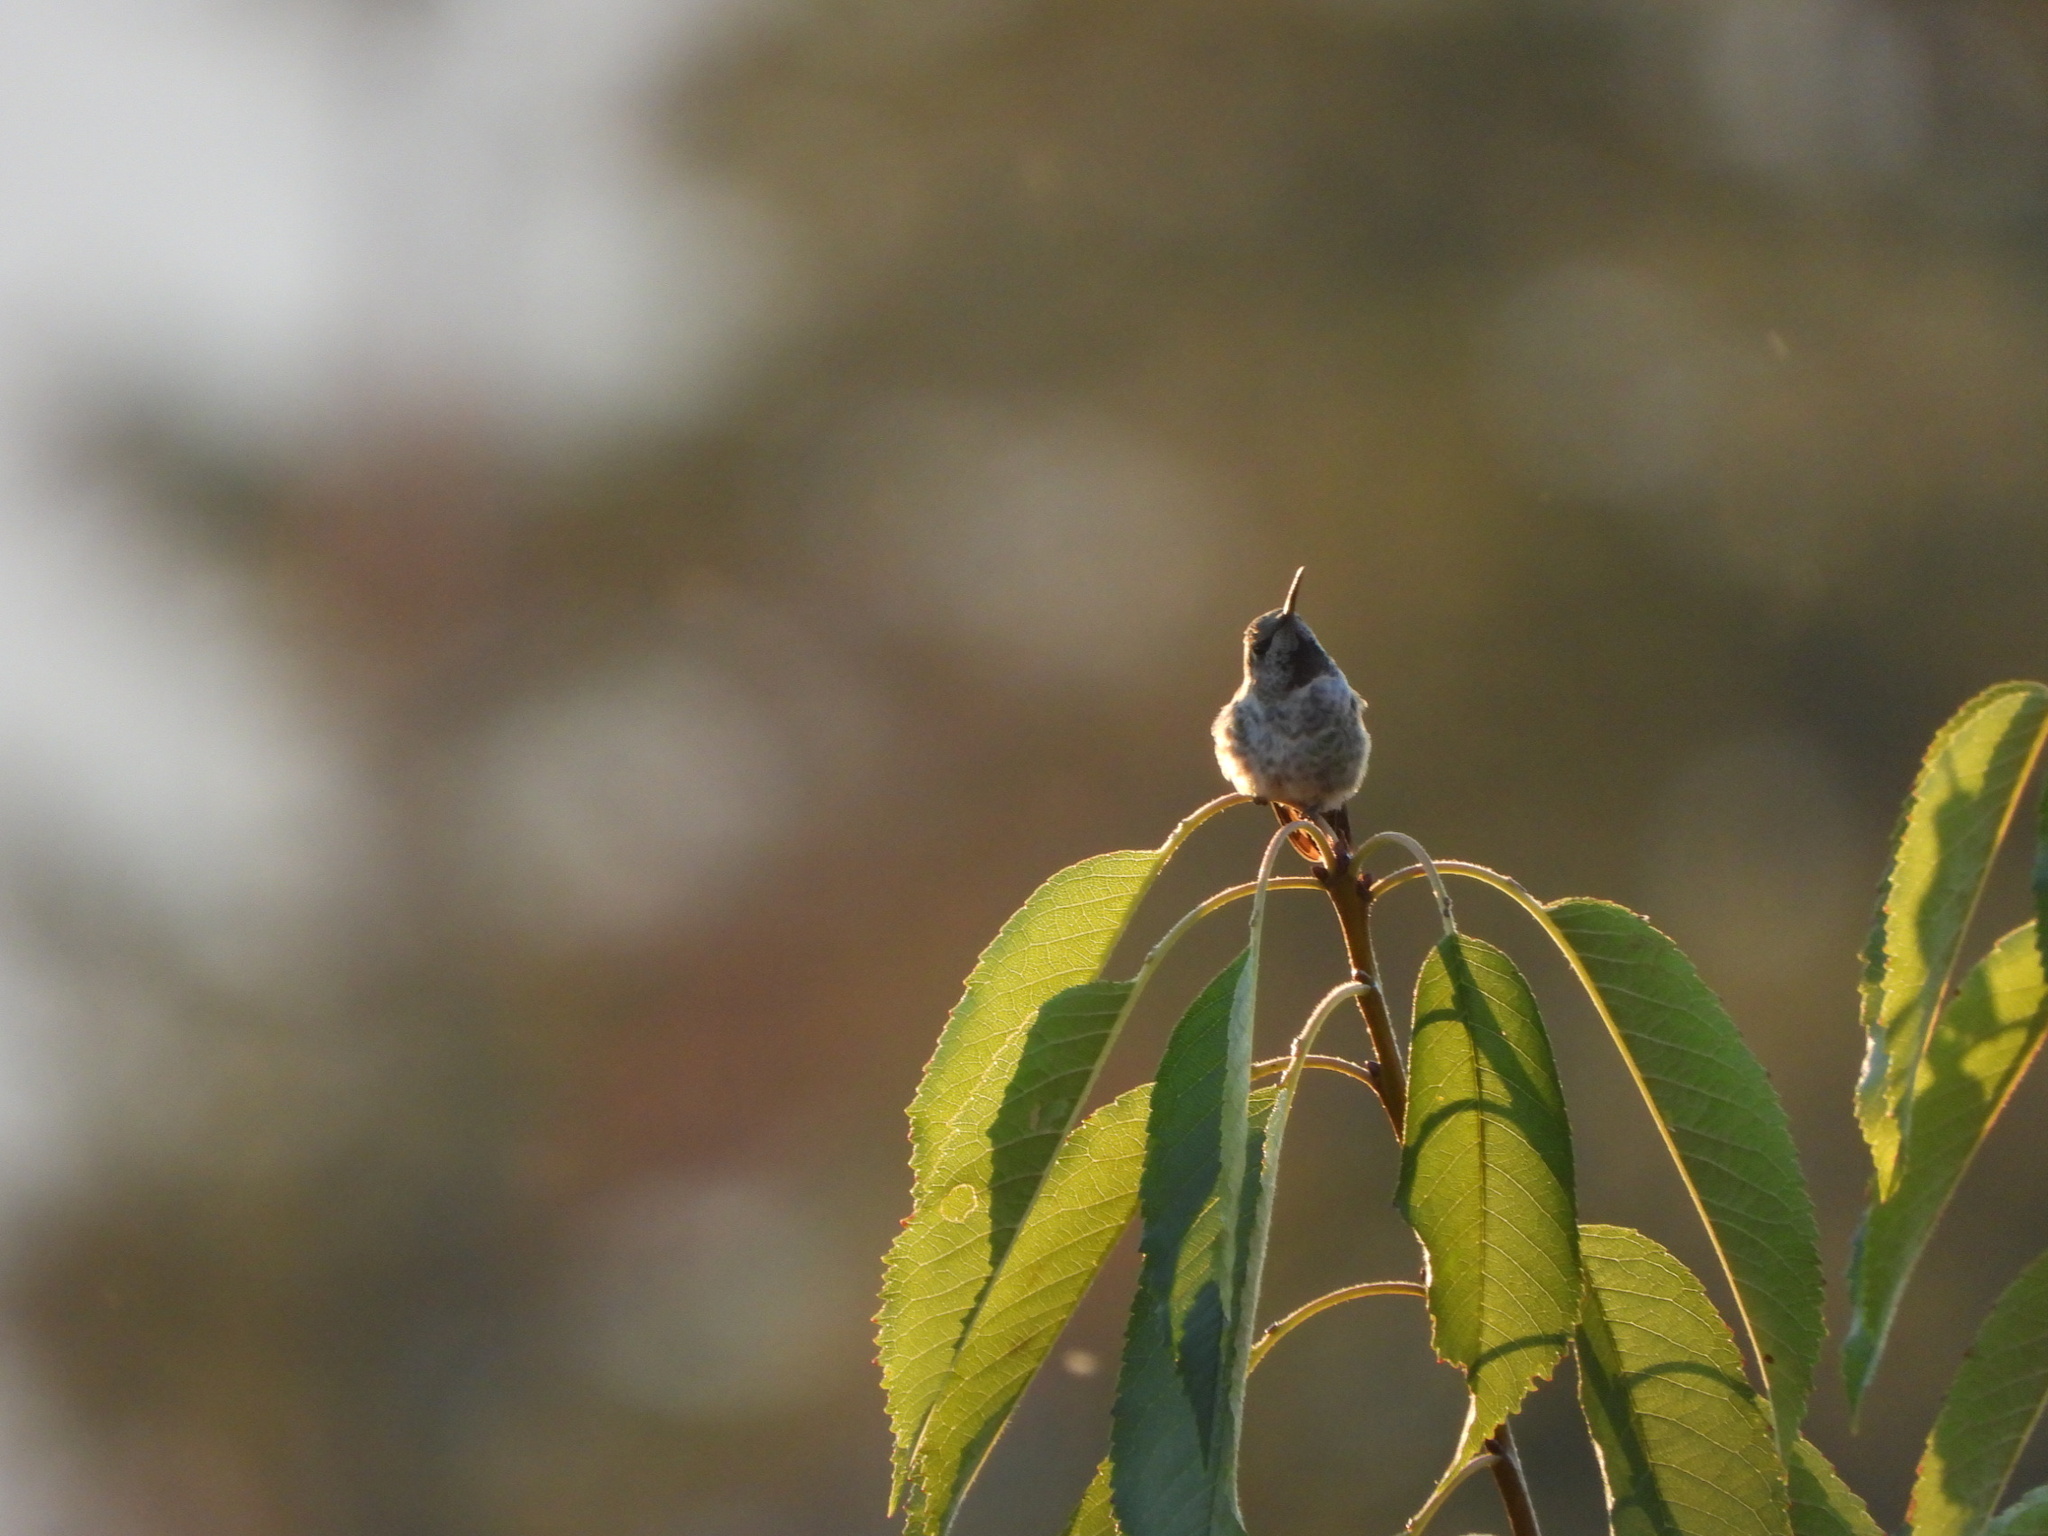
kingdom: Animalia
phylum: Chordata
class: Aves
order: Apodiformes
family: Trochilidae
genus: Calypte
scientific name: Calypte anna
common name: Anna's hummingbird
